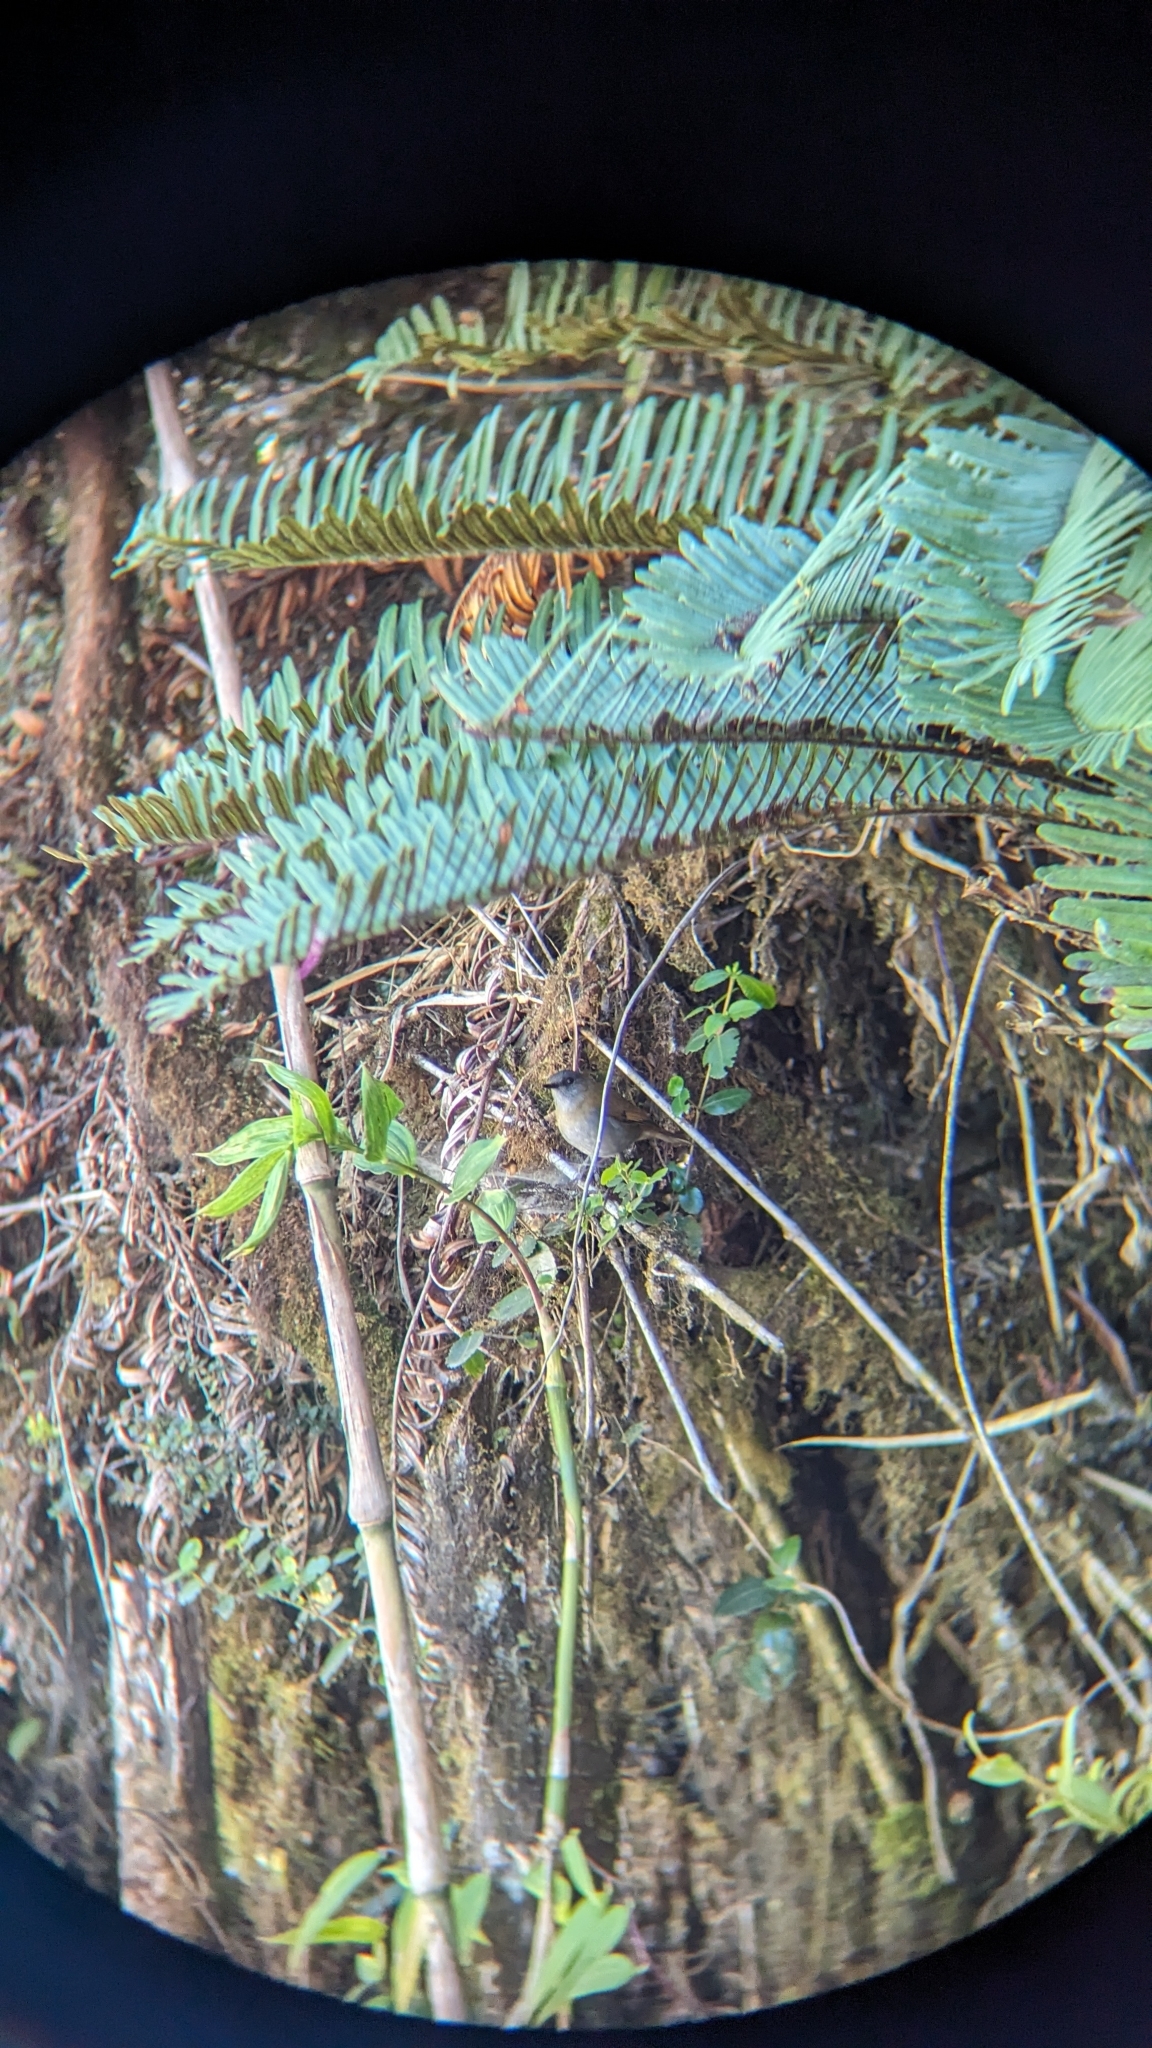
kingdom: Animalia
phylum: Chordata
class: Aves
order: Passeriformes
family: Turdidae
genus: Catharus
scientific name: Catharus gracilirostris
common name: Black-billed nightingale-thrush
